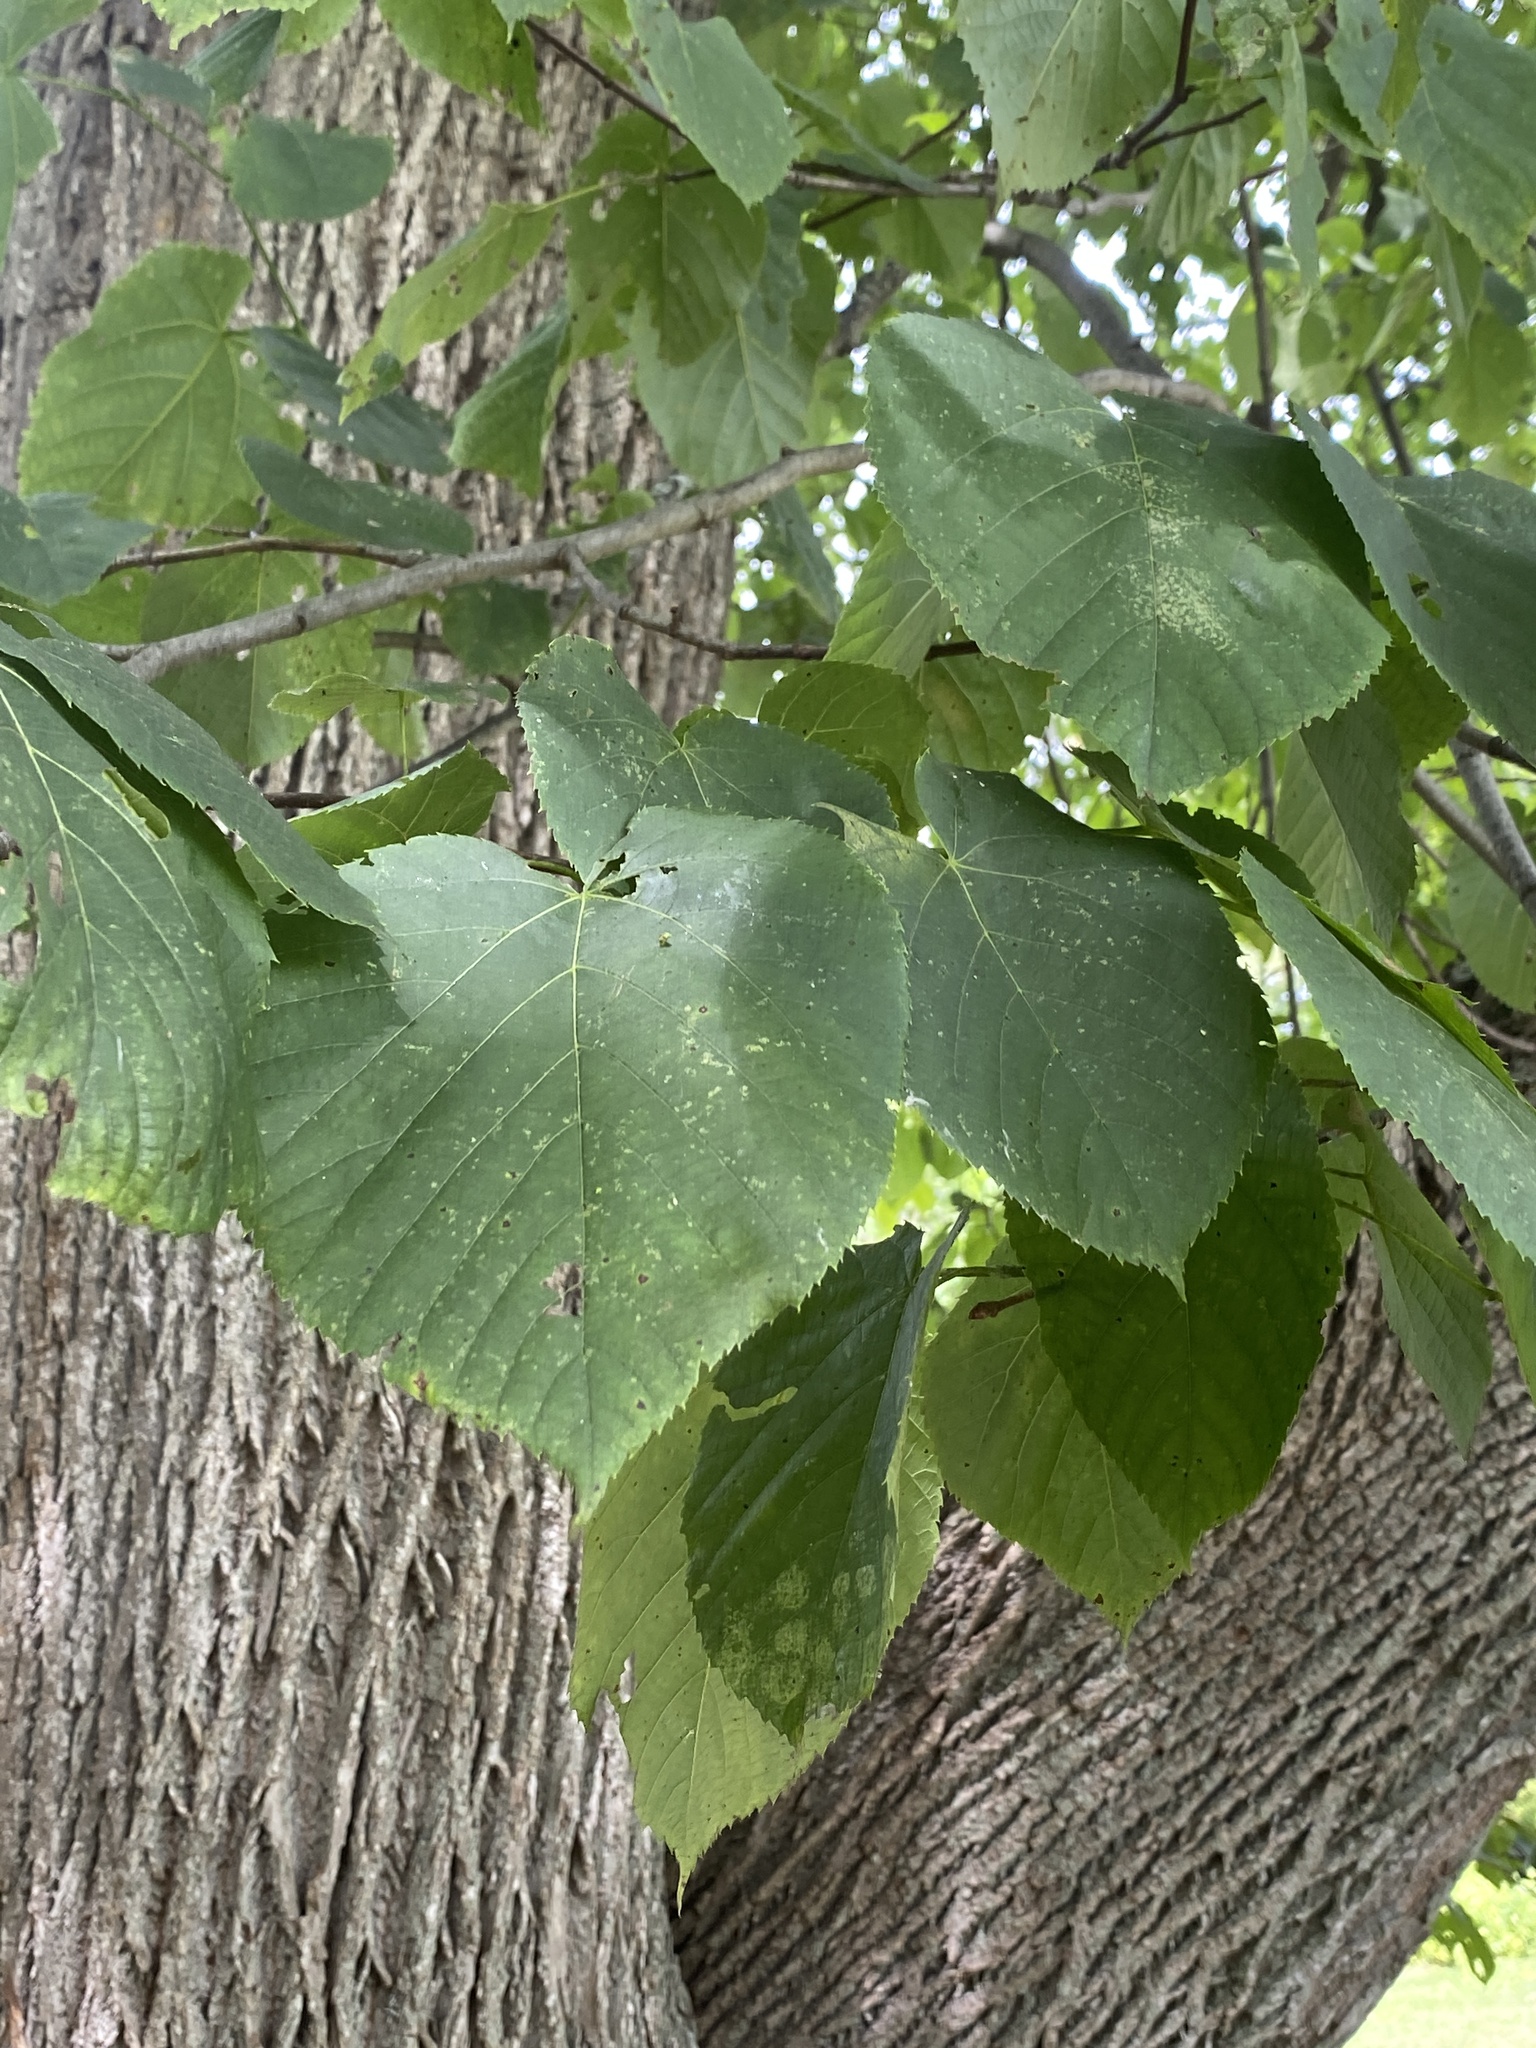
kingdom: Plantae
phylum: Tracheophyta
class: Magnoliopsida
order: Malvales
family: Malvaceae
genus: Tilia
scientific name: Tilia americana
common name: Basswood
